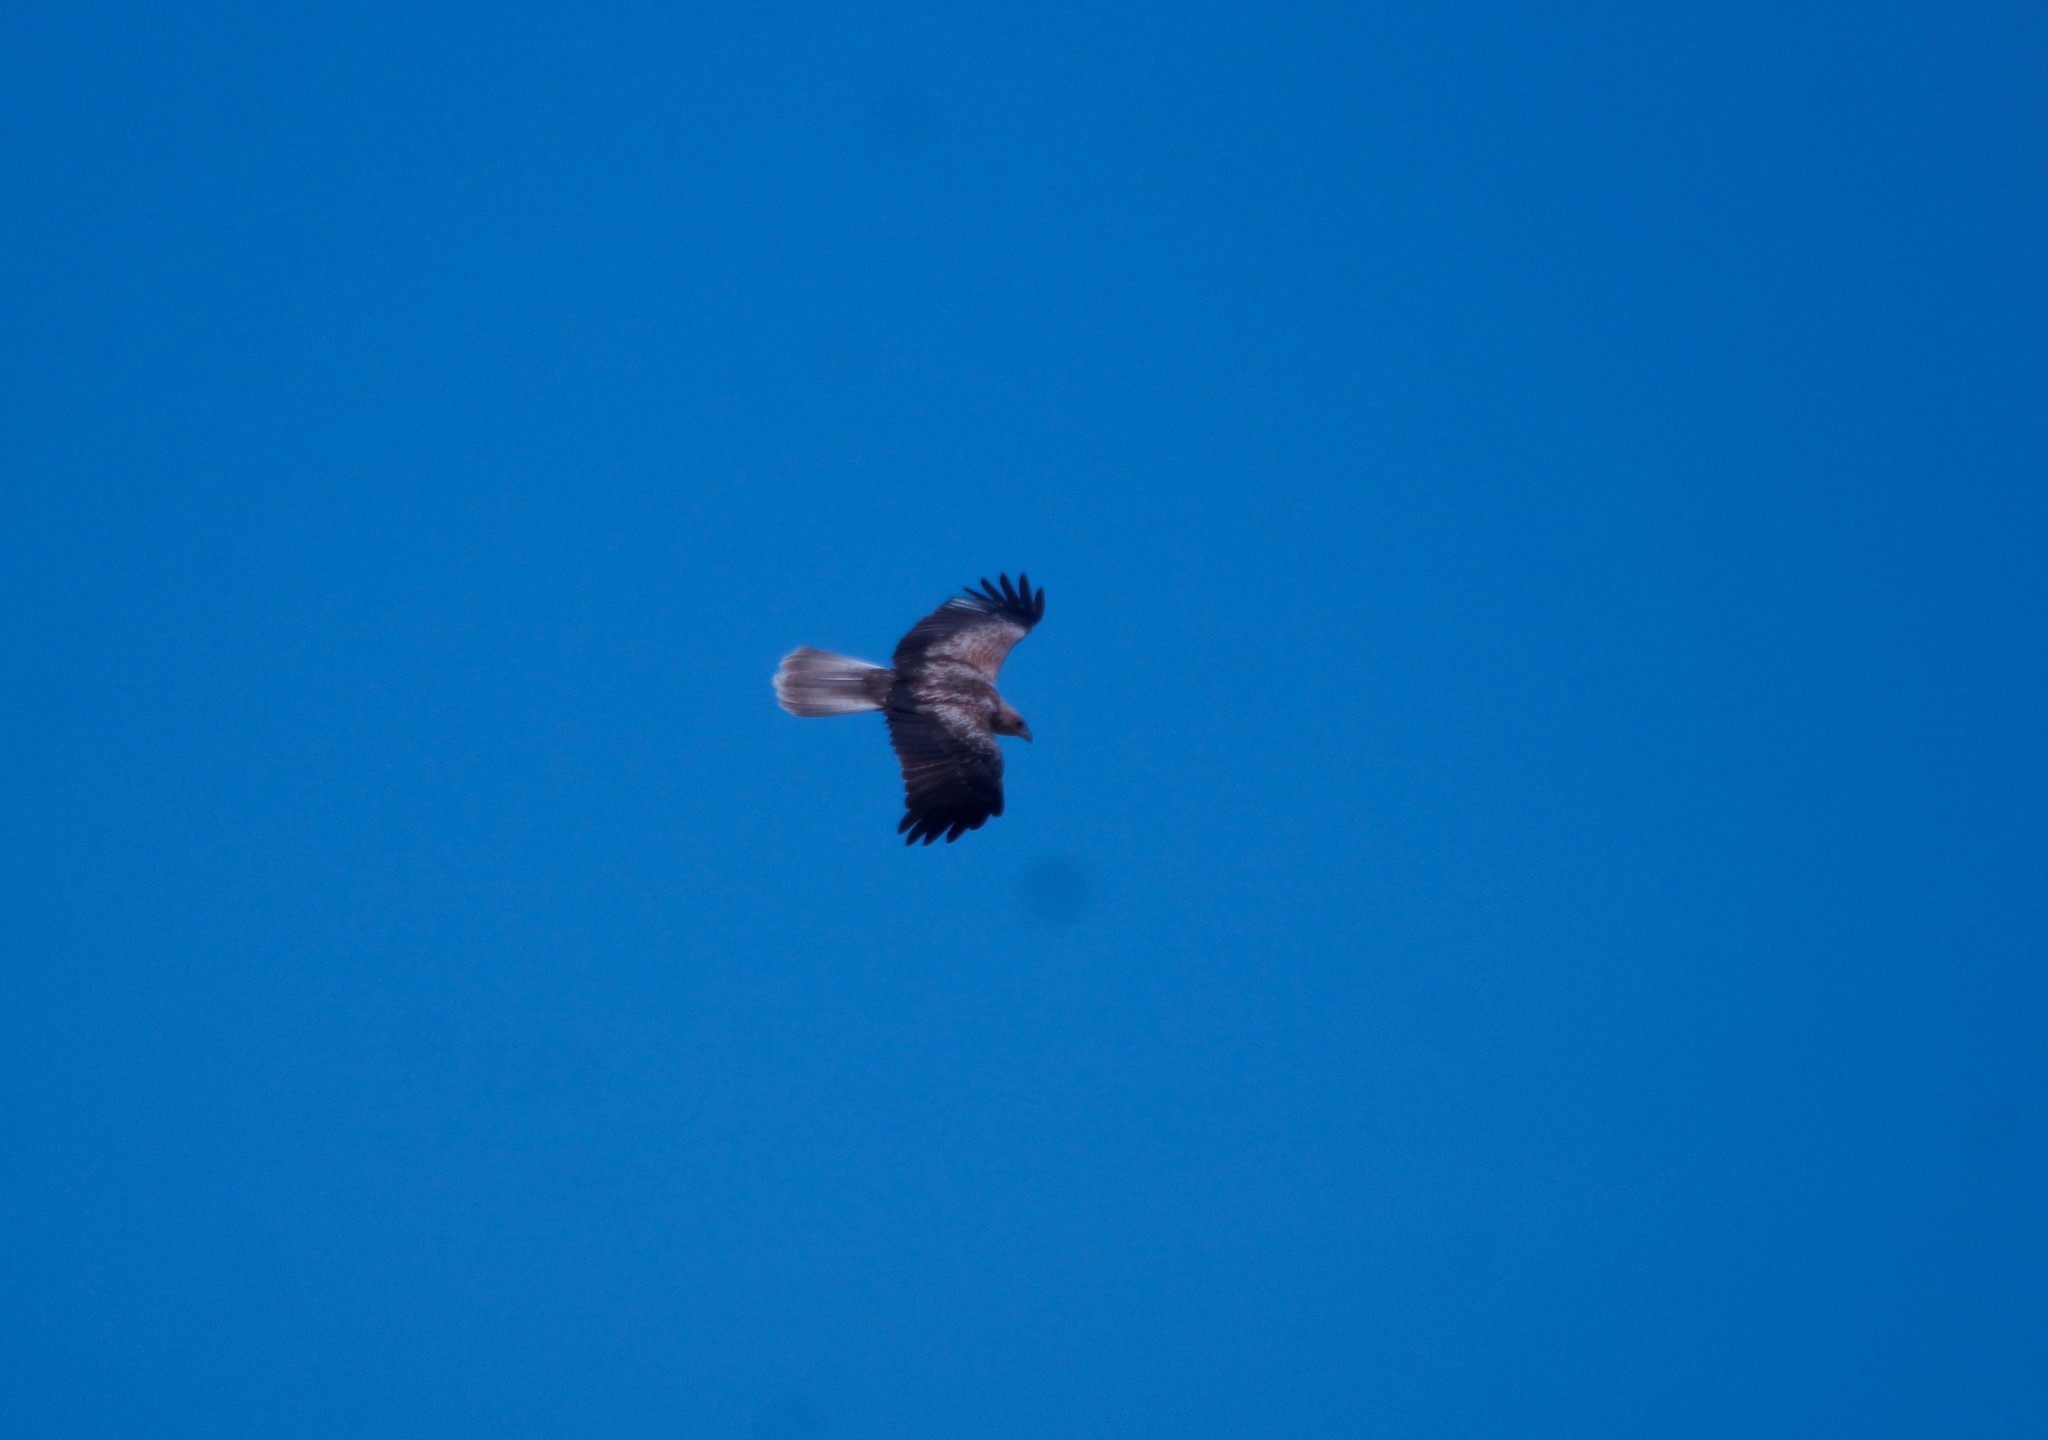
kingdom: Animalia
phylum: Chordata
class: Aves
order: Accipitriformes
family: Accipitridae
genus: Haliastur
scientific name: Haliastur sphenurus
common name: Whistling kite
